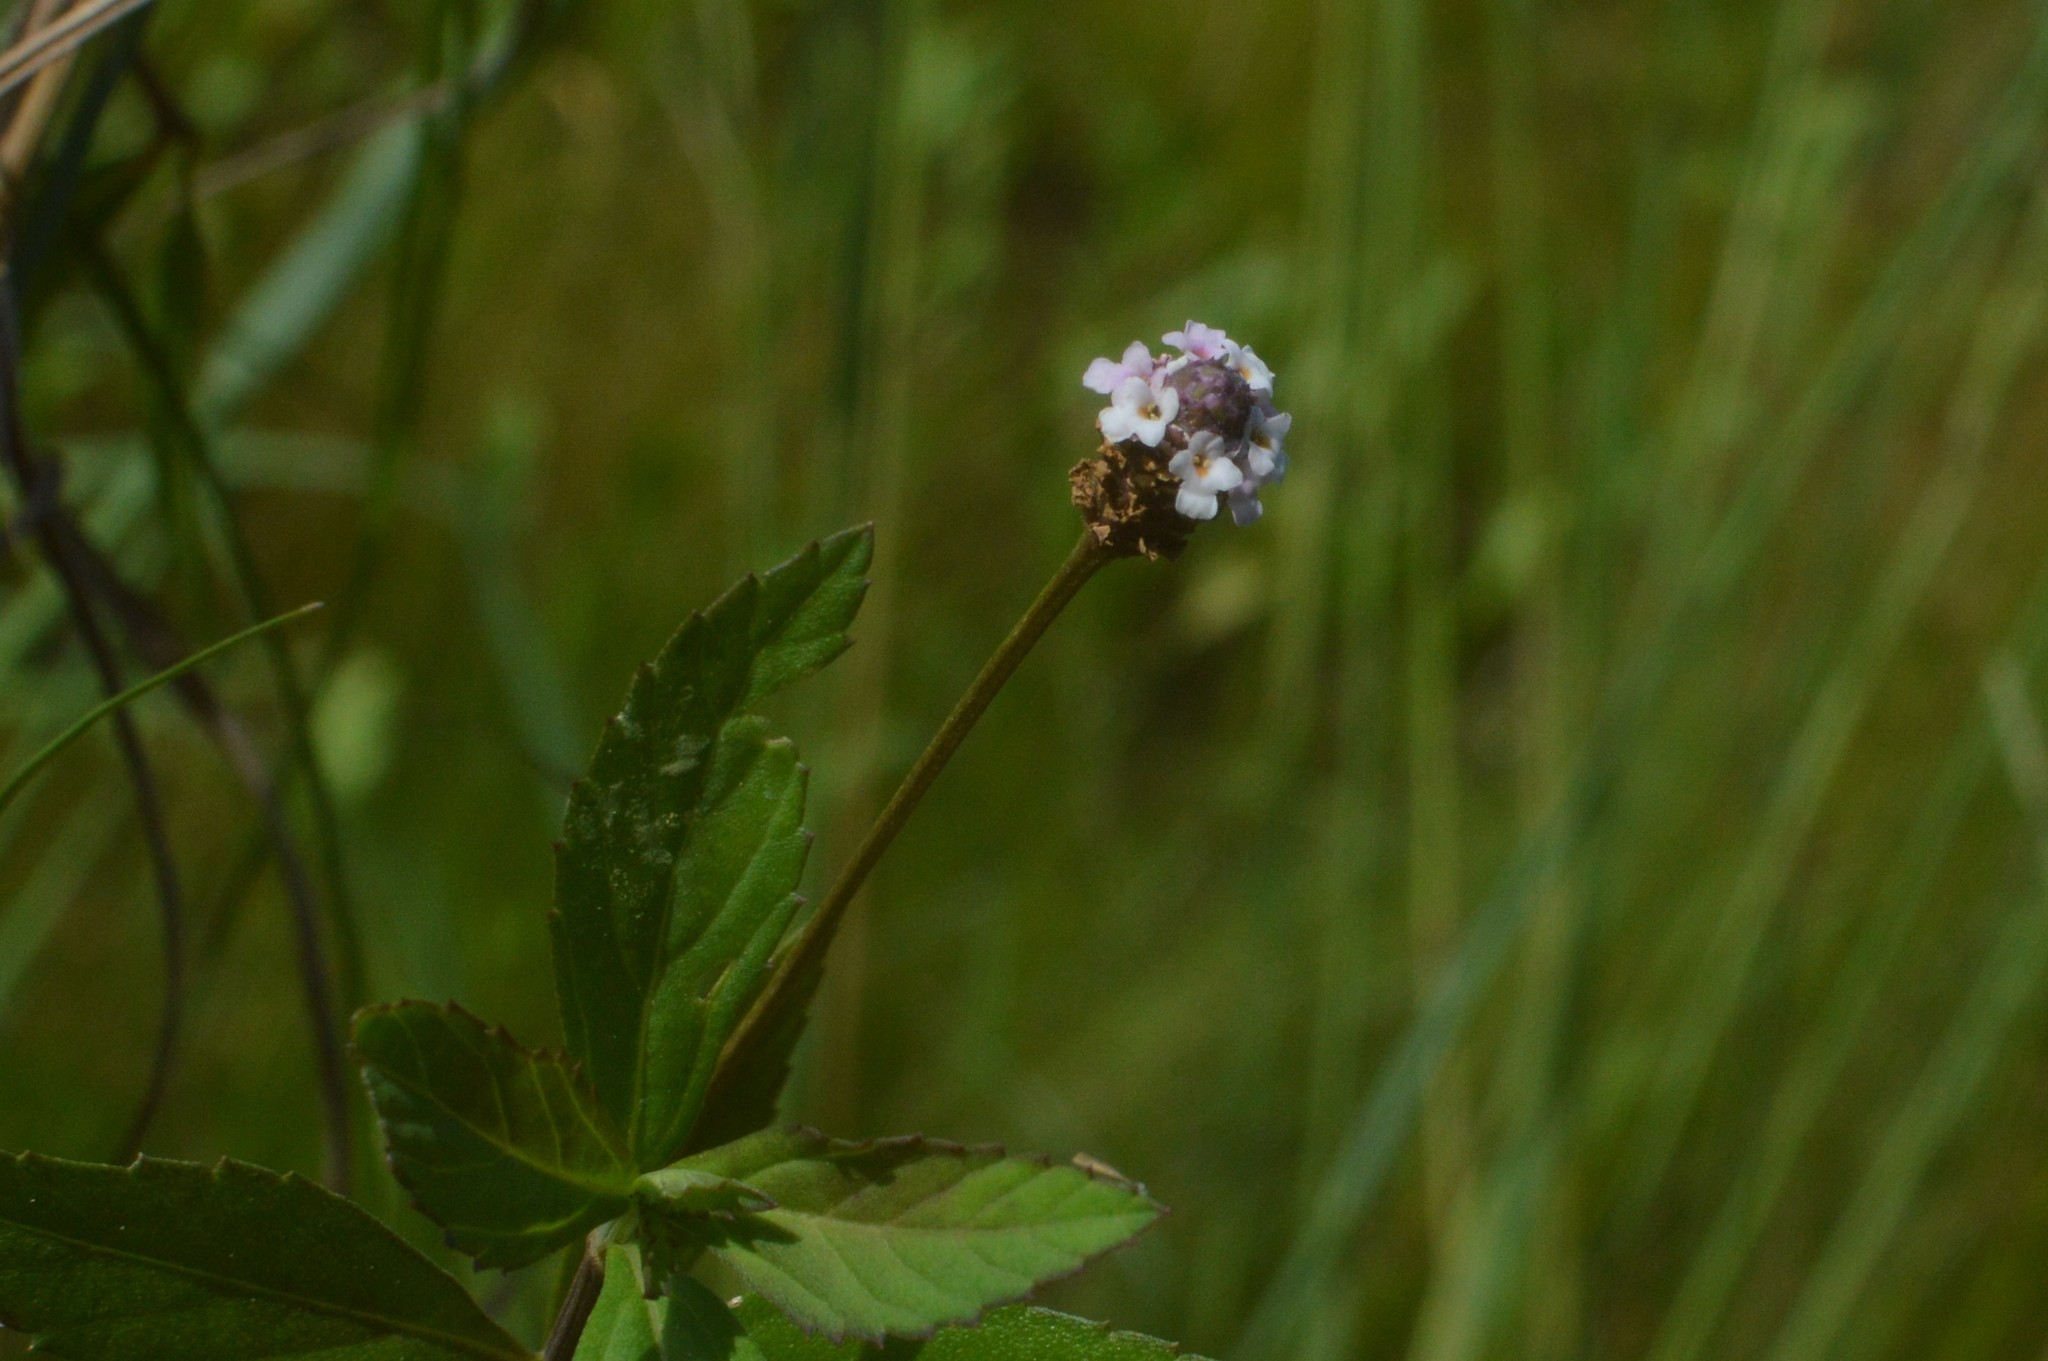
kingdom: Plantae
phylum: Tracheophyta
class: Magnoliopsida
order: Lamiales
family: Verbenaceae
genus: Phyla
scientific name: Phyla lanceolata
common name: Northern fogfruit
